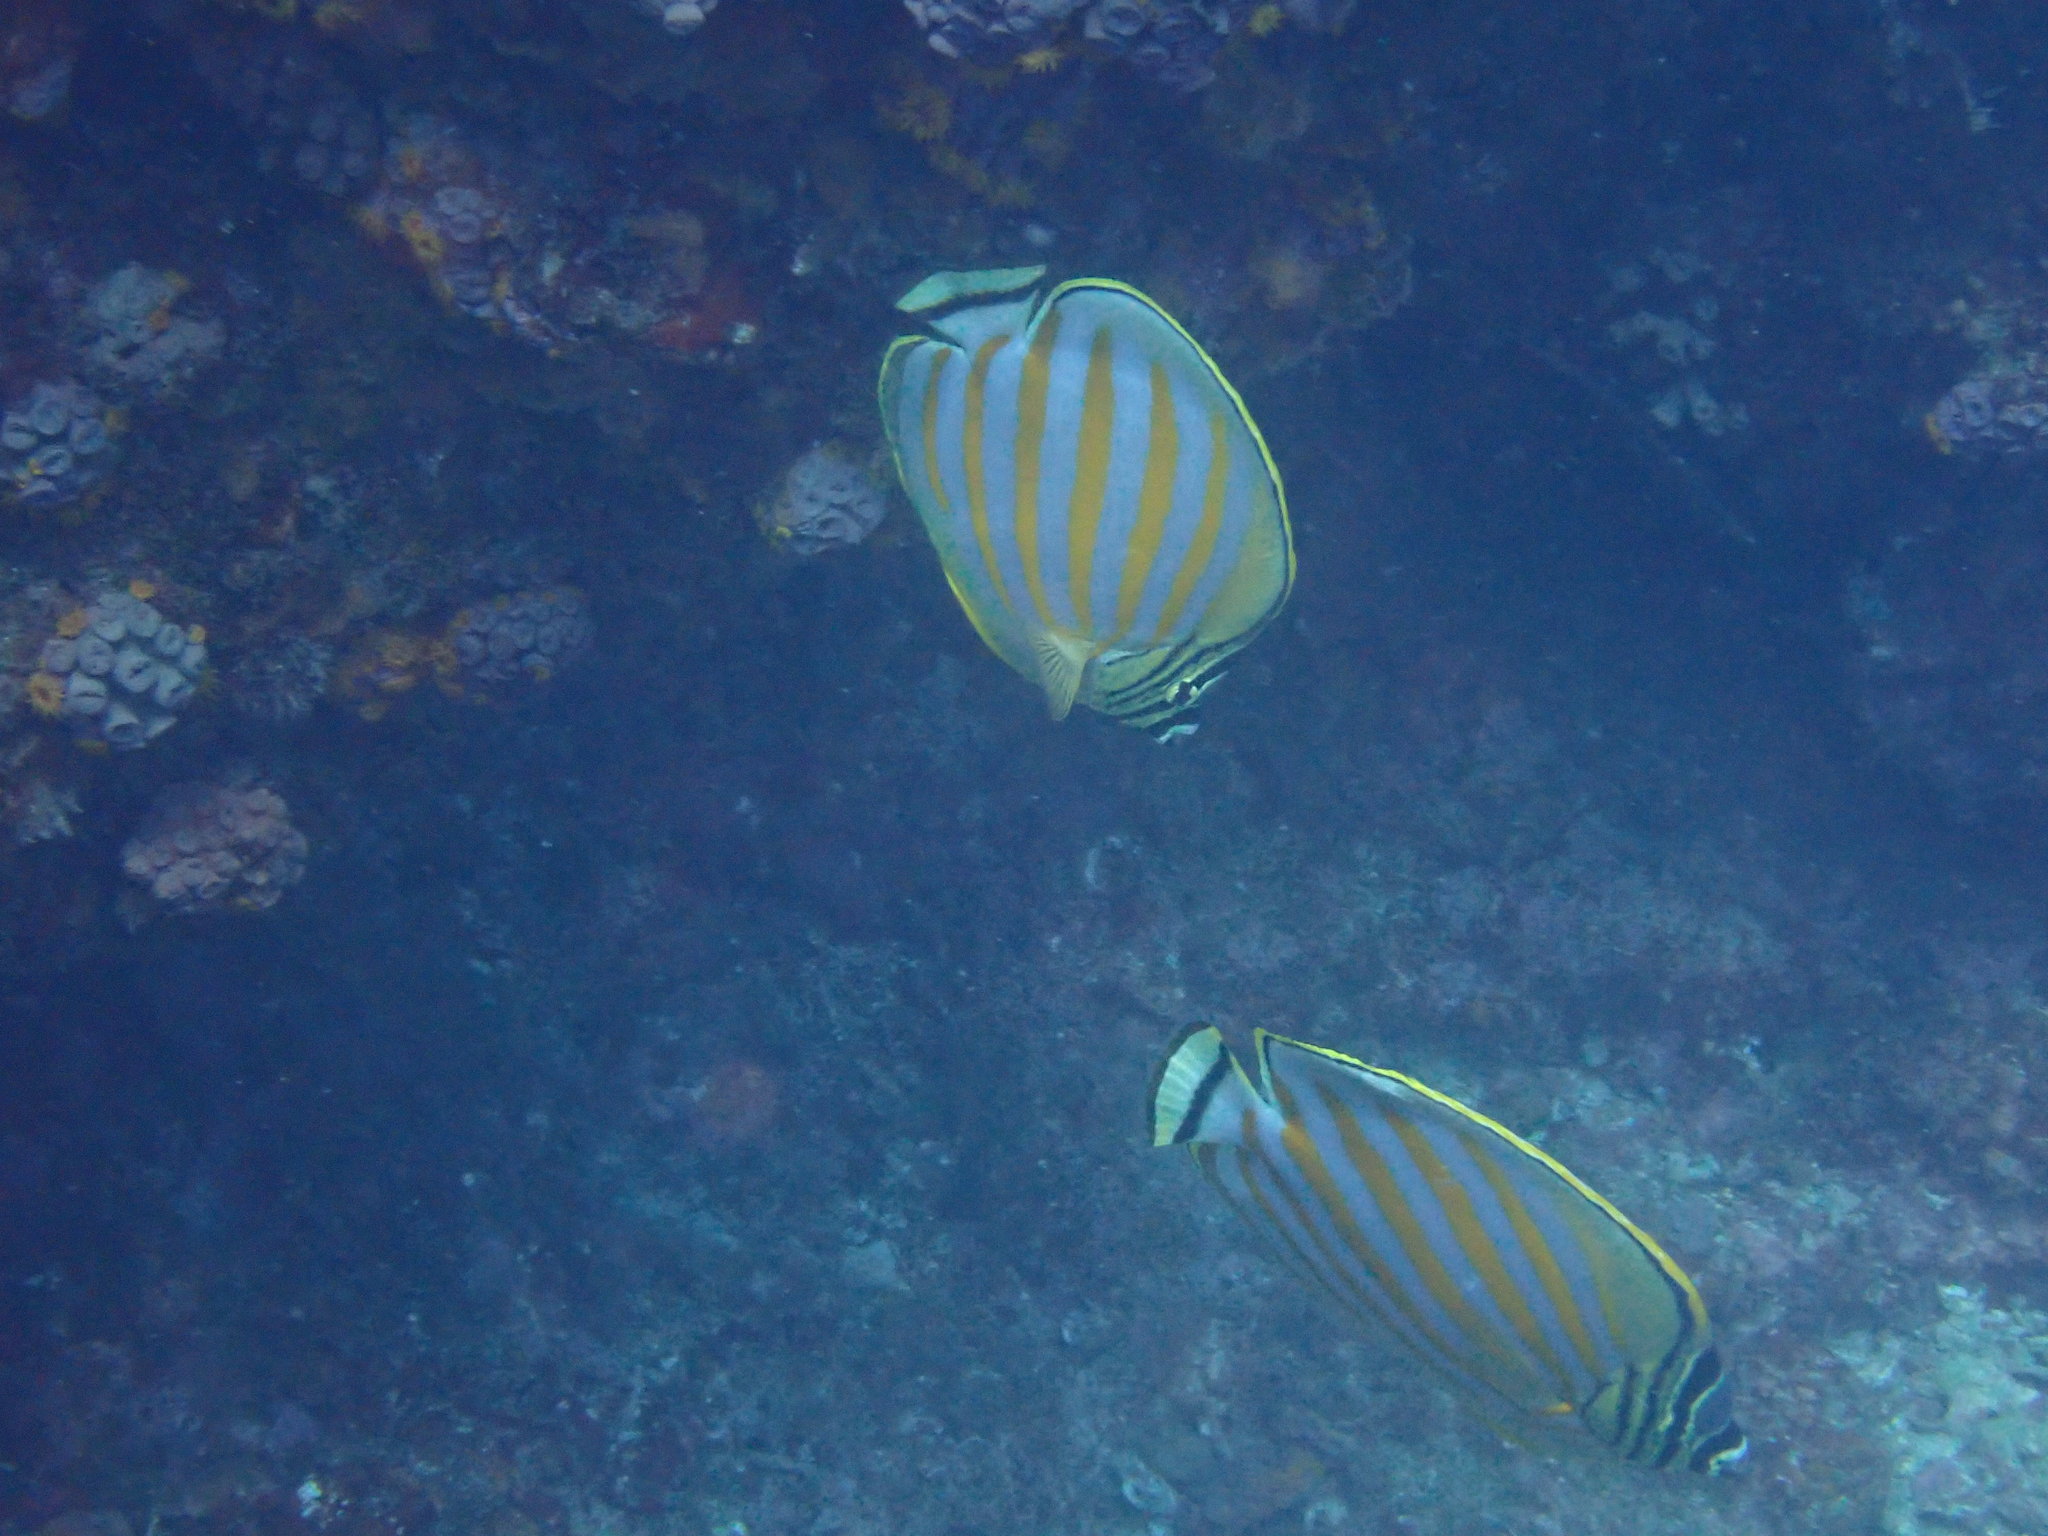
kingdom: Animalia
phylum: Chordata
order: Perciformes
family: Chaetodontidae
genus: Chaetodon
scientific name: Chaetodon ornatissimus
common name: Ornate butterflyfish
